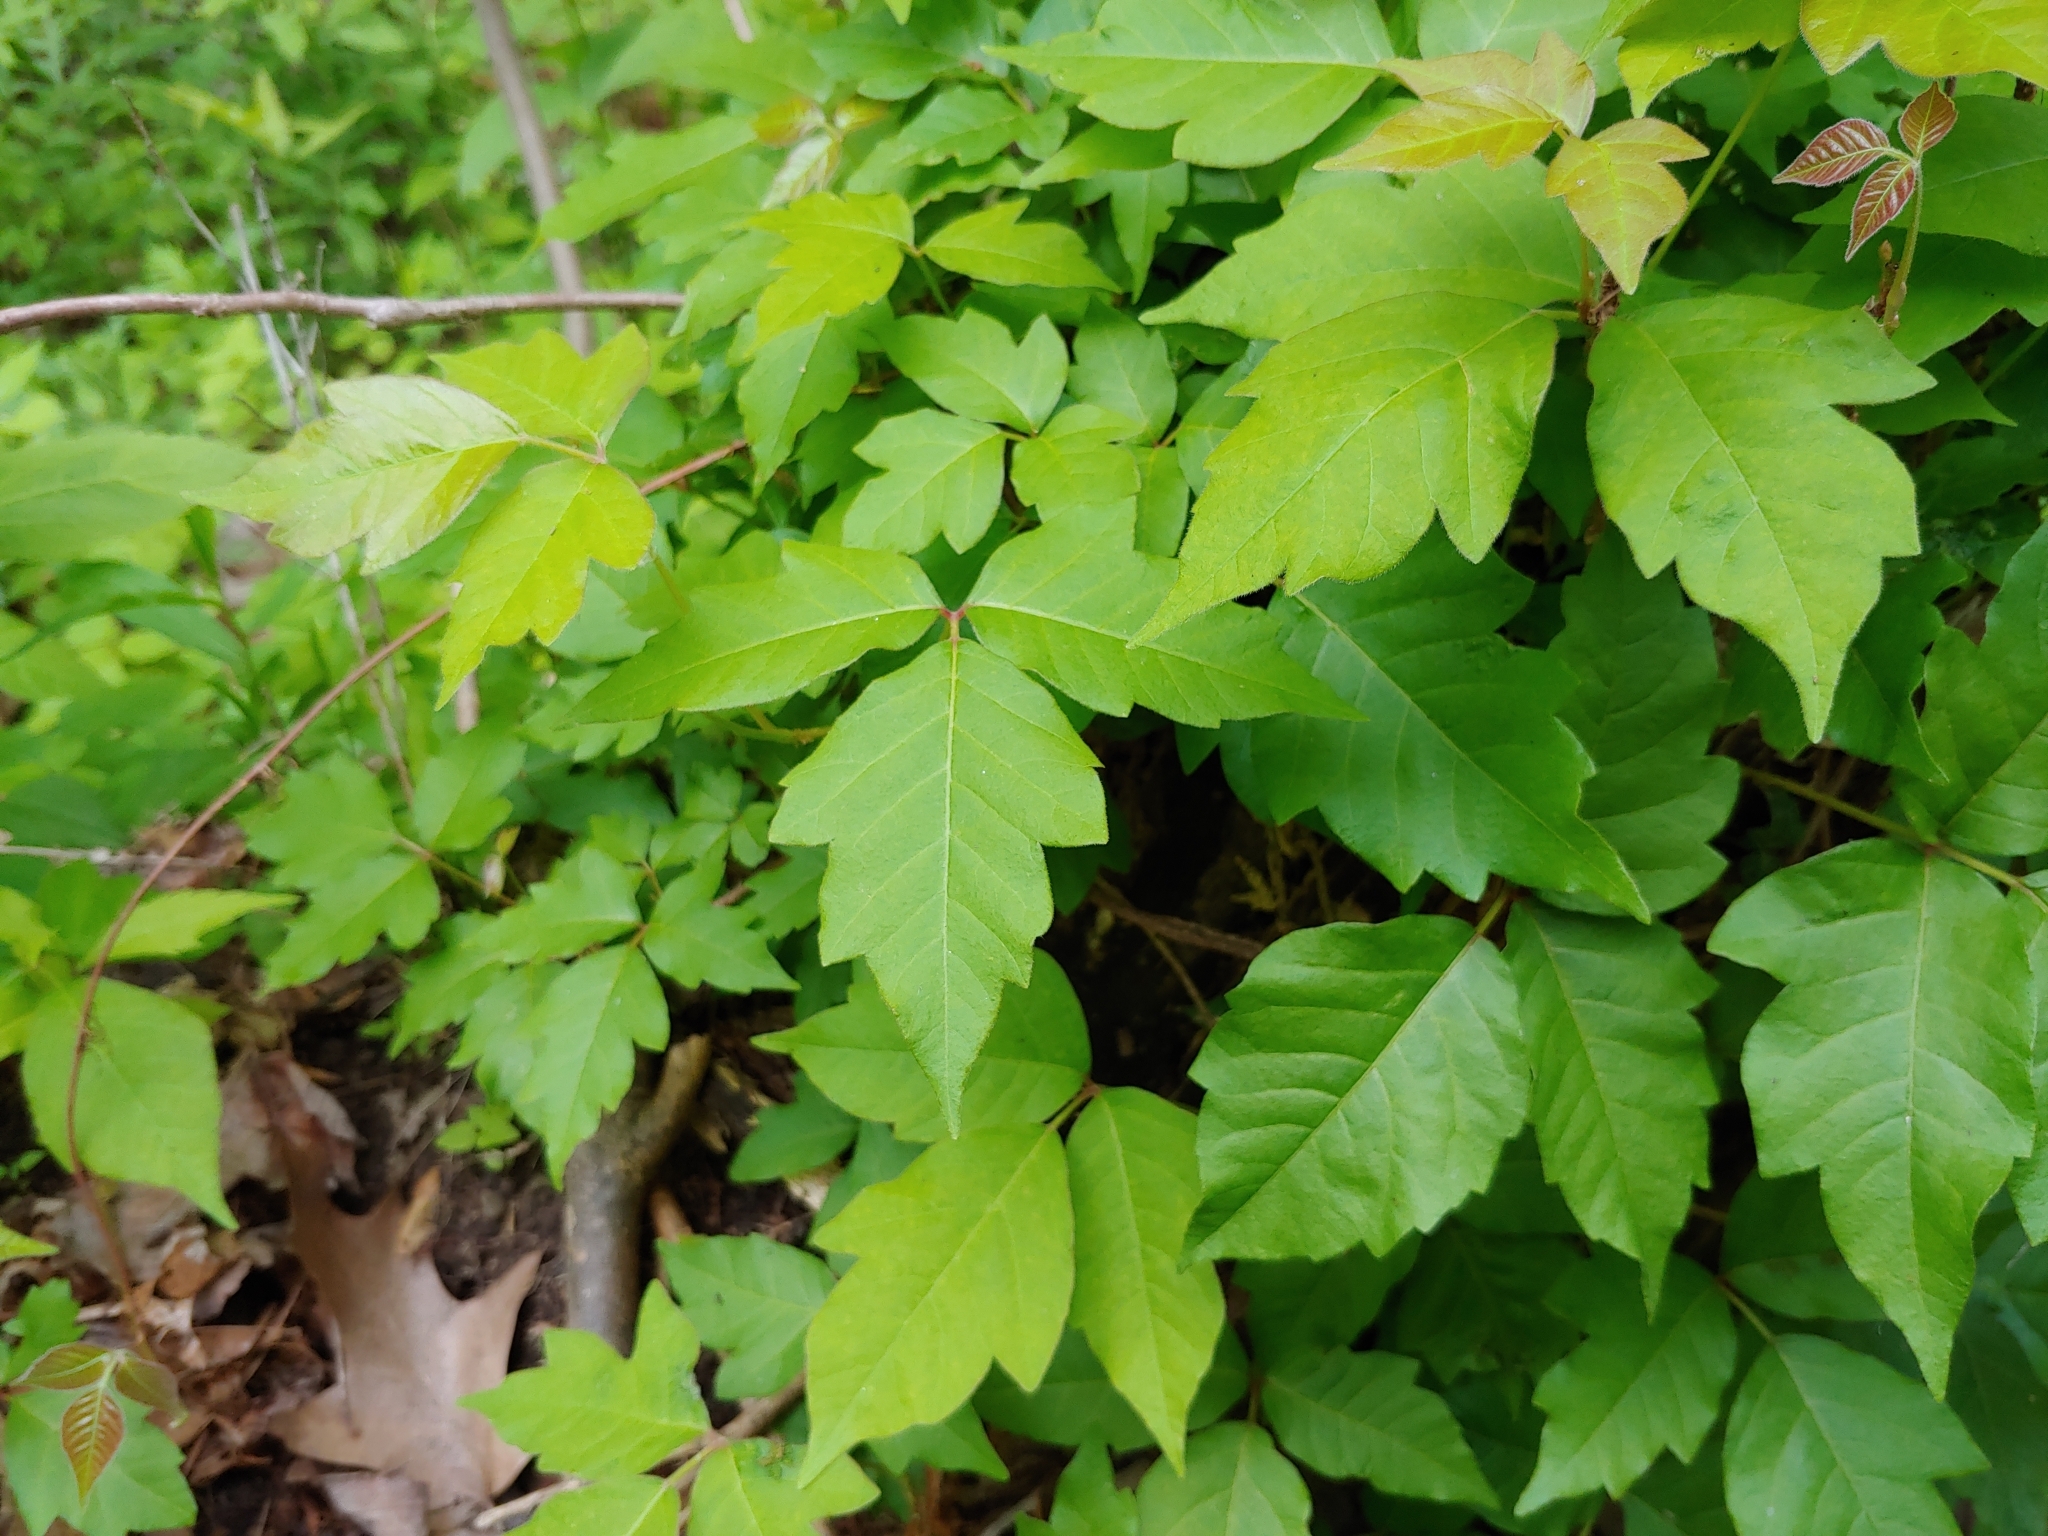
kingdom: Plantae
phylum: Tracheophyta
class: Magnoliopsida
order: Sapindales
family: Anacardiaceae
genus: Toxicodendron
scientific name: Toxicodendron radicans
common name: Poison ivy
